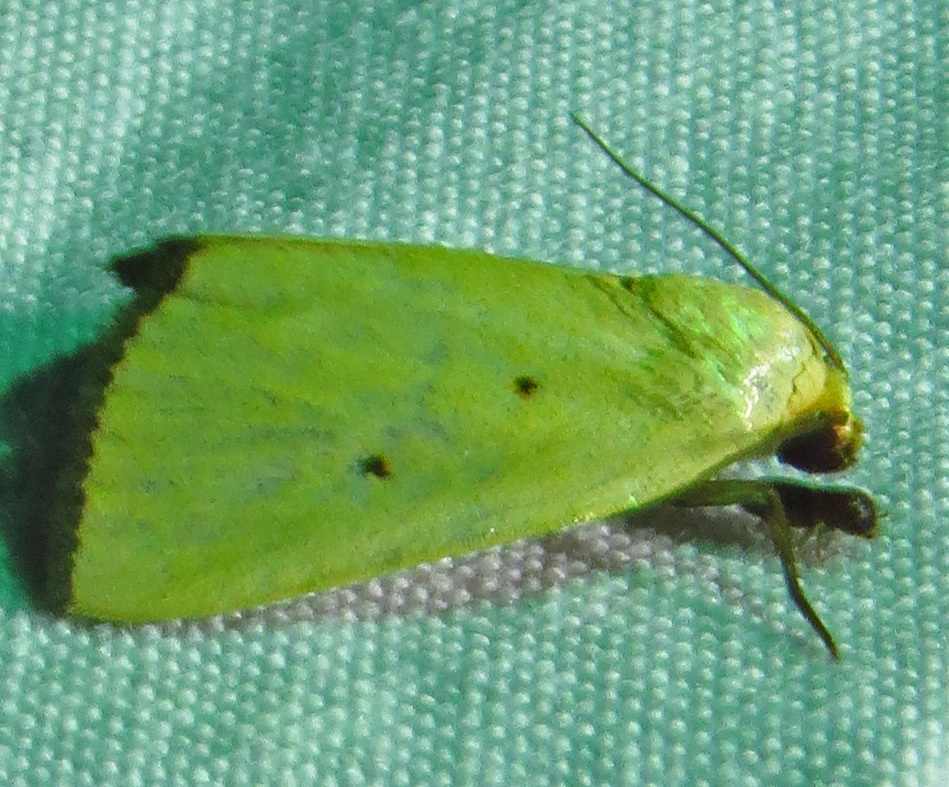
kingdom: Animalia
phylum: Arthropoda
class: Insecta
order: Lepidoptera
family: Noctuidae
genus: Marimatha
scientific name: Marimatha nigrofimbria
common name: Black-bordered lemon moth
